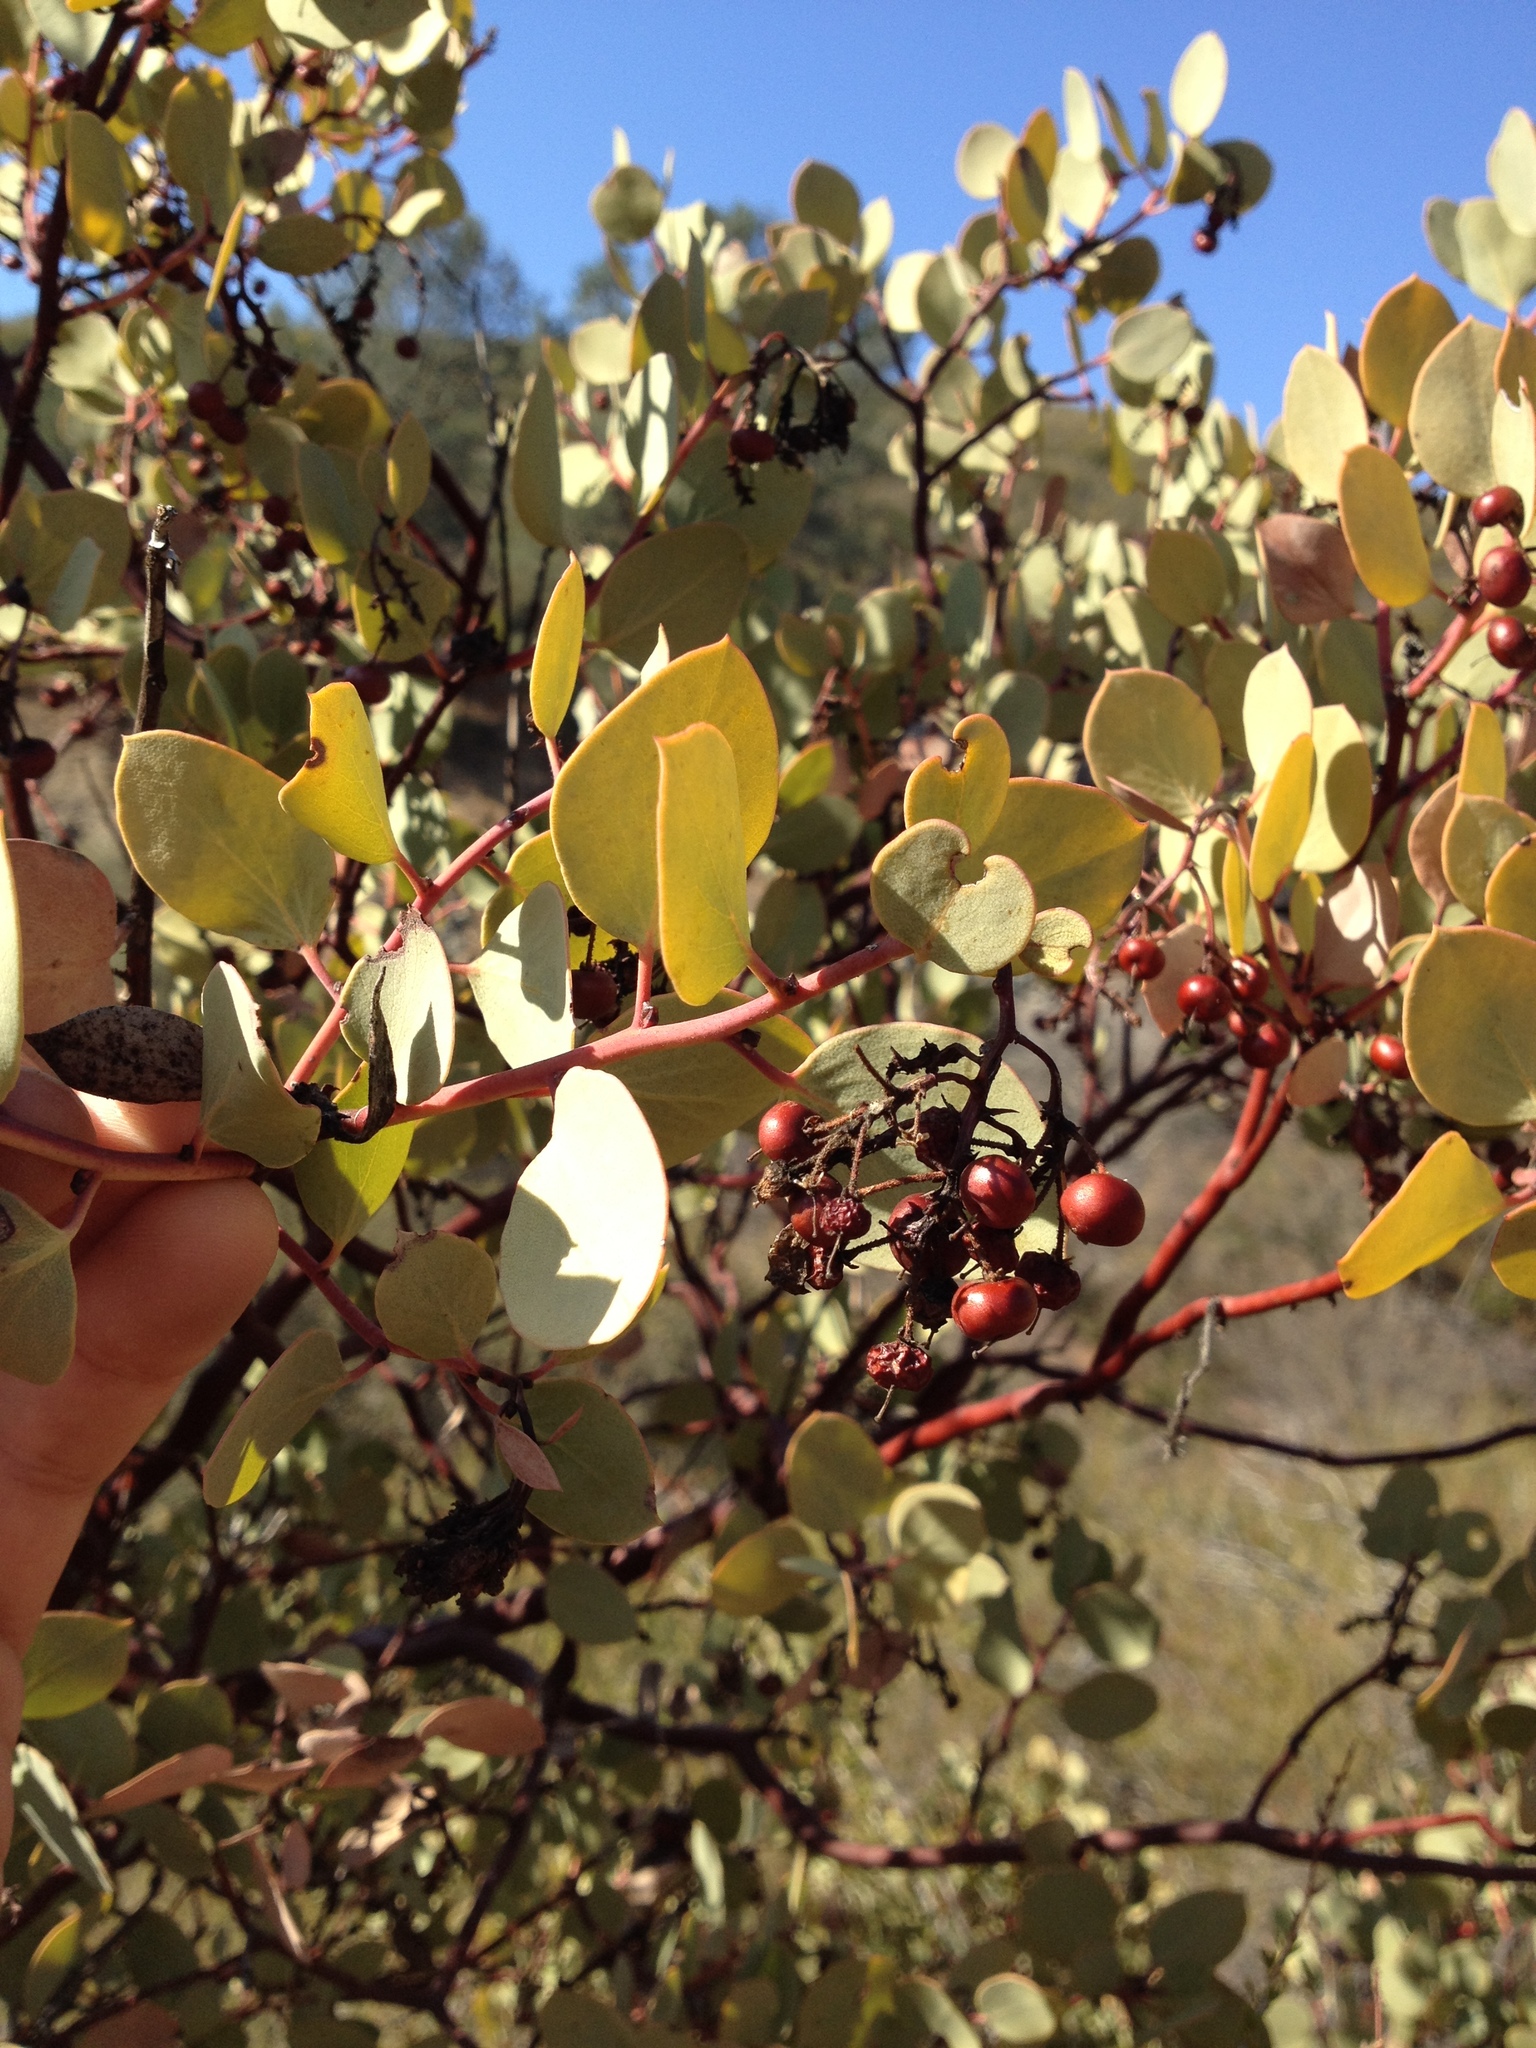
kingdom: Plantae
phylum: Tracheophyta
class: Magnoliopsida
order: Ericales
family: Ericaceae
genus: Arctostaphylos
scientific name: Arctostaphylos viscida
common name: White-leaf manzanita
